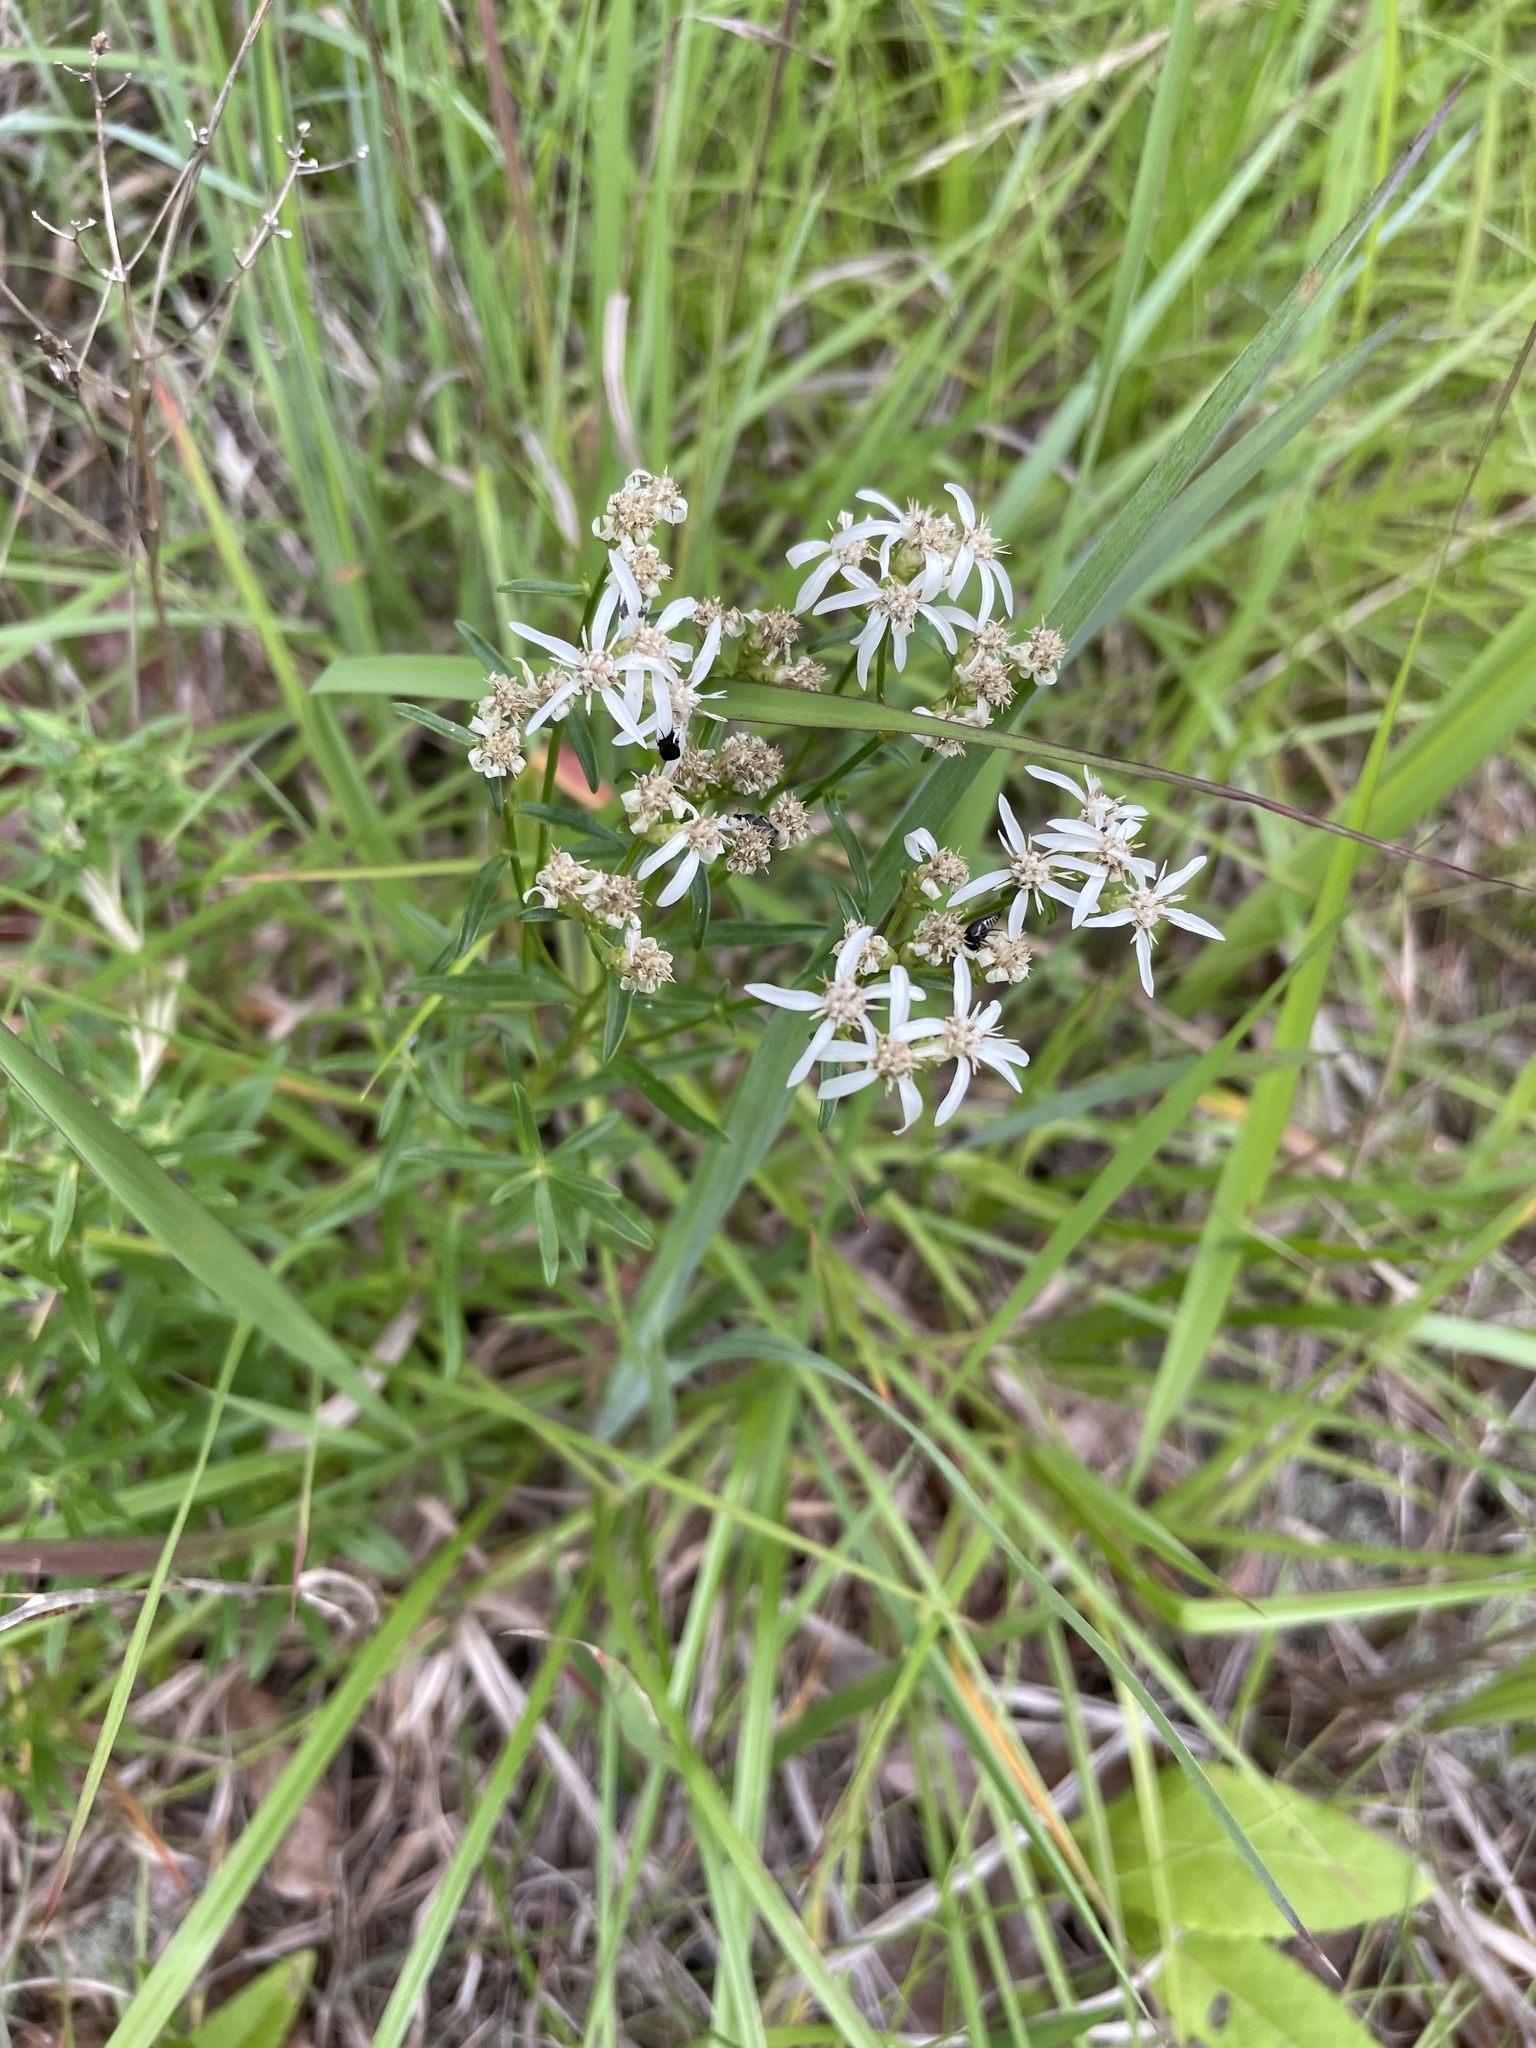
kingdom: Plantae
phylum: Tracheophyta
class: Magnoliopsida
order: Asterales
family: Asteraceae
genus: Sericocarpus
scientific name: Sericocarpus linifolius
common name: Narrow-leaf aster
